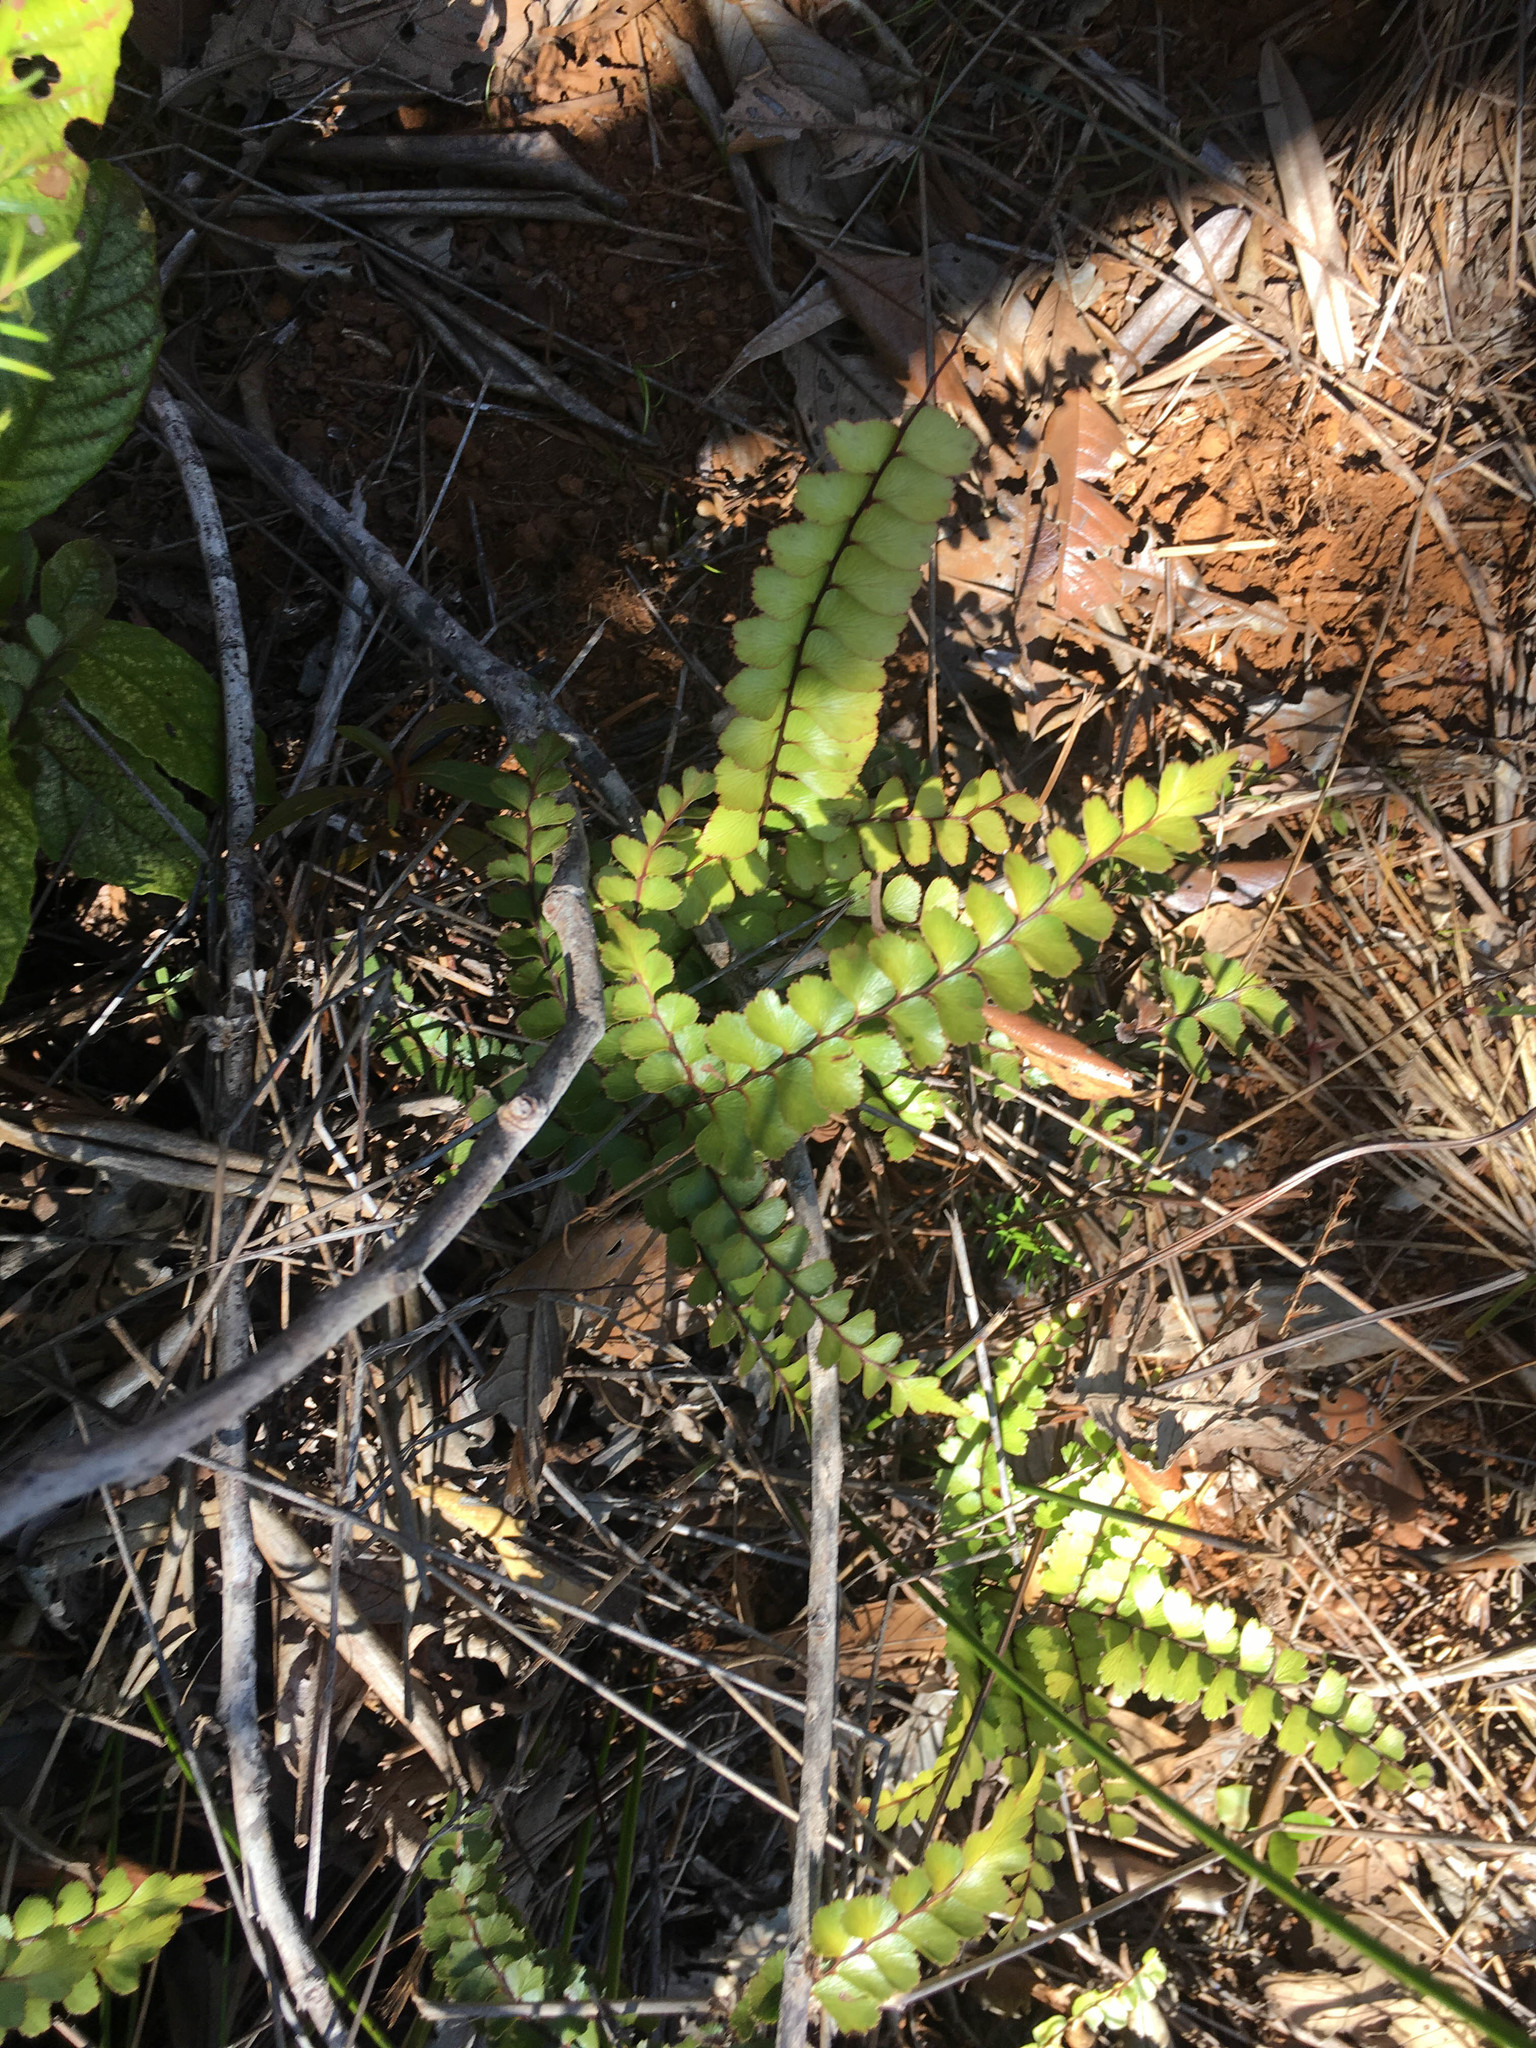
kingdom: Plantae
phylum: Tracheophyta
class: Polypodiopsida
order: Polypodiales
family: Lindsaeaceae
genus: Lindsaea
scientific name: Lindsaea nervosa
